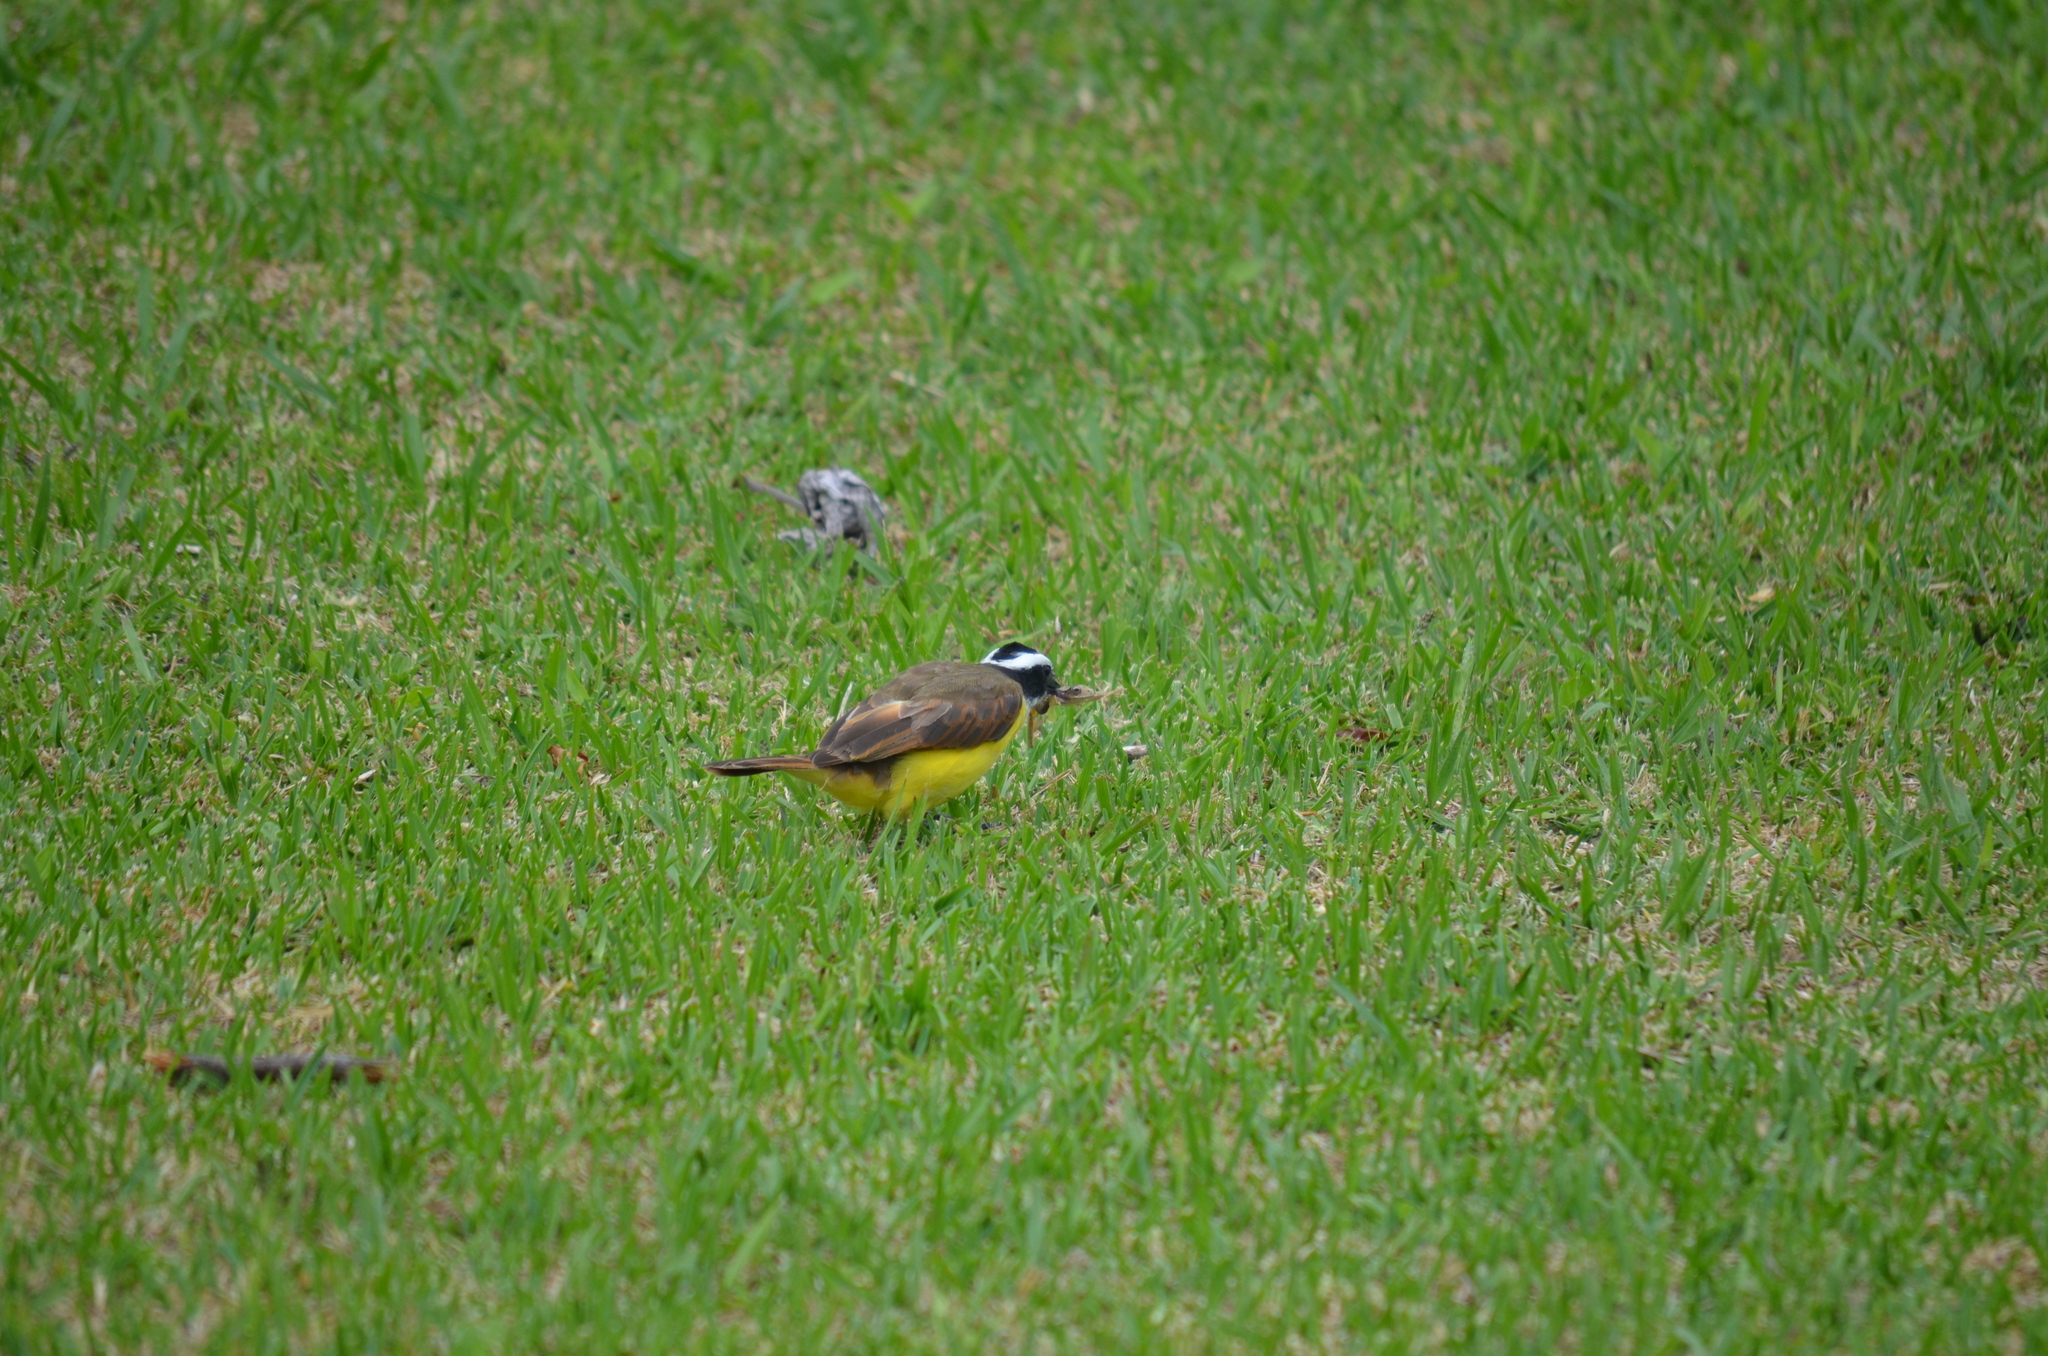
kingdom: Animalia
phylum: Chordata
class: Aves
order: Passeriformes
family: Tyrannidae
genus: Pitangus
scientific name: Pitangus sulphuratus
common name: Great kiskadee
